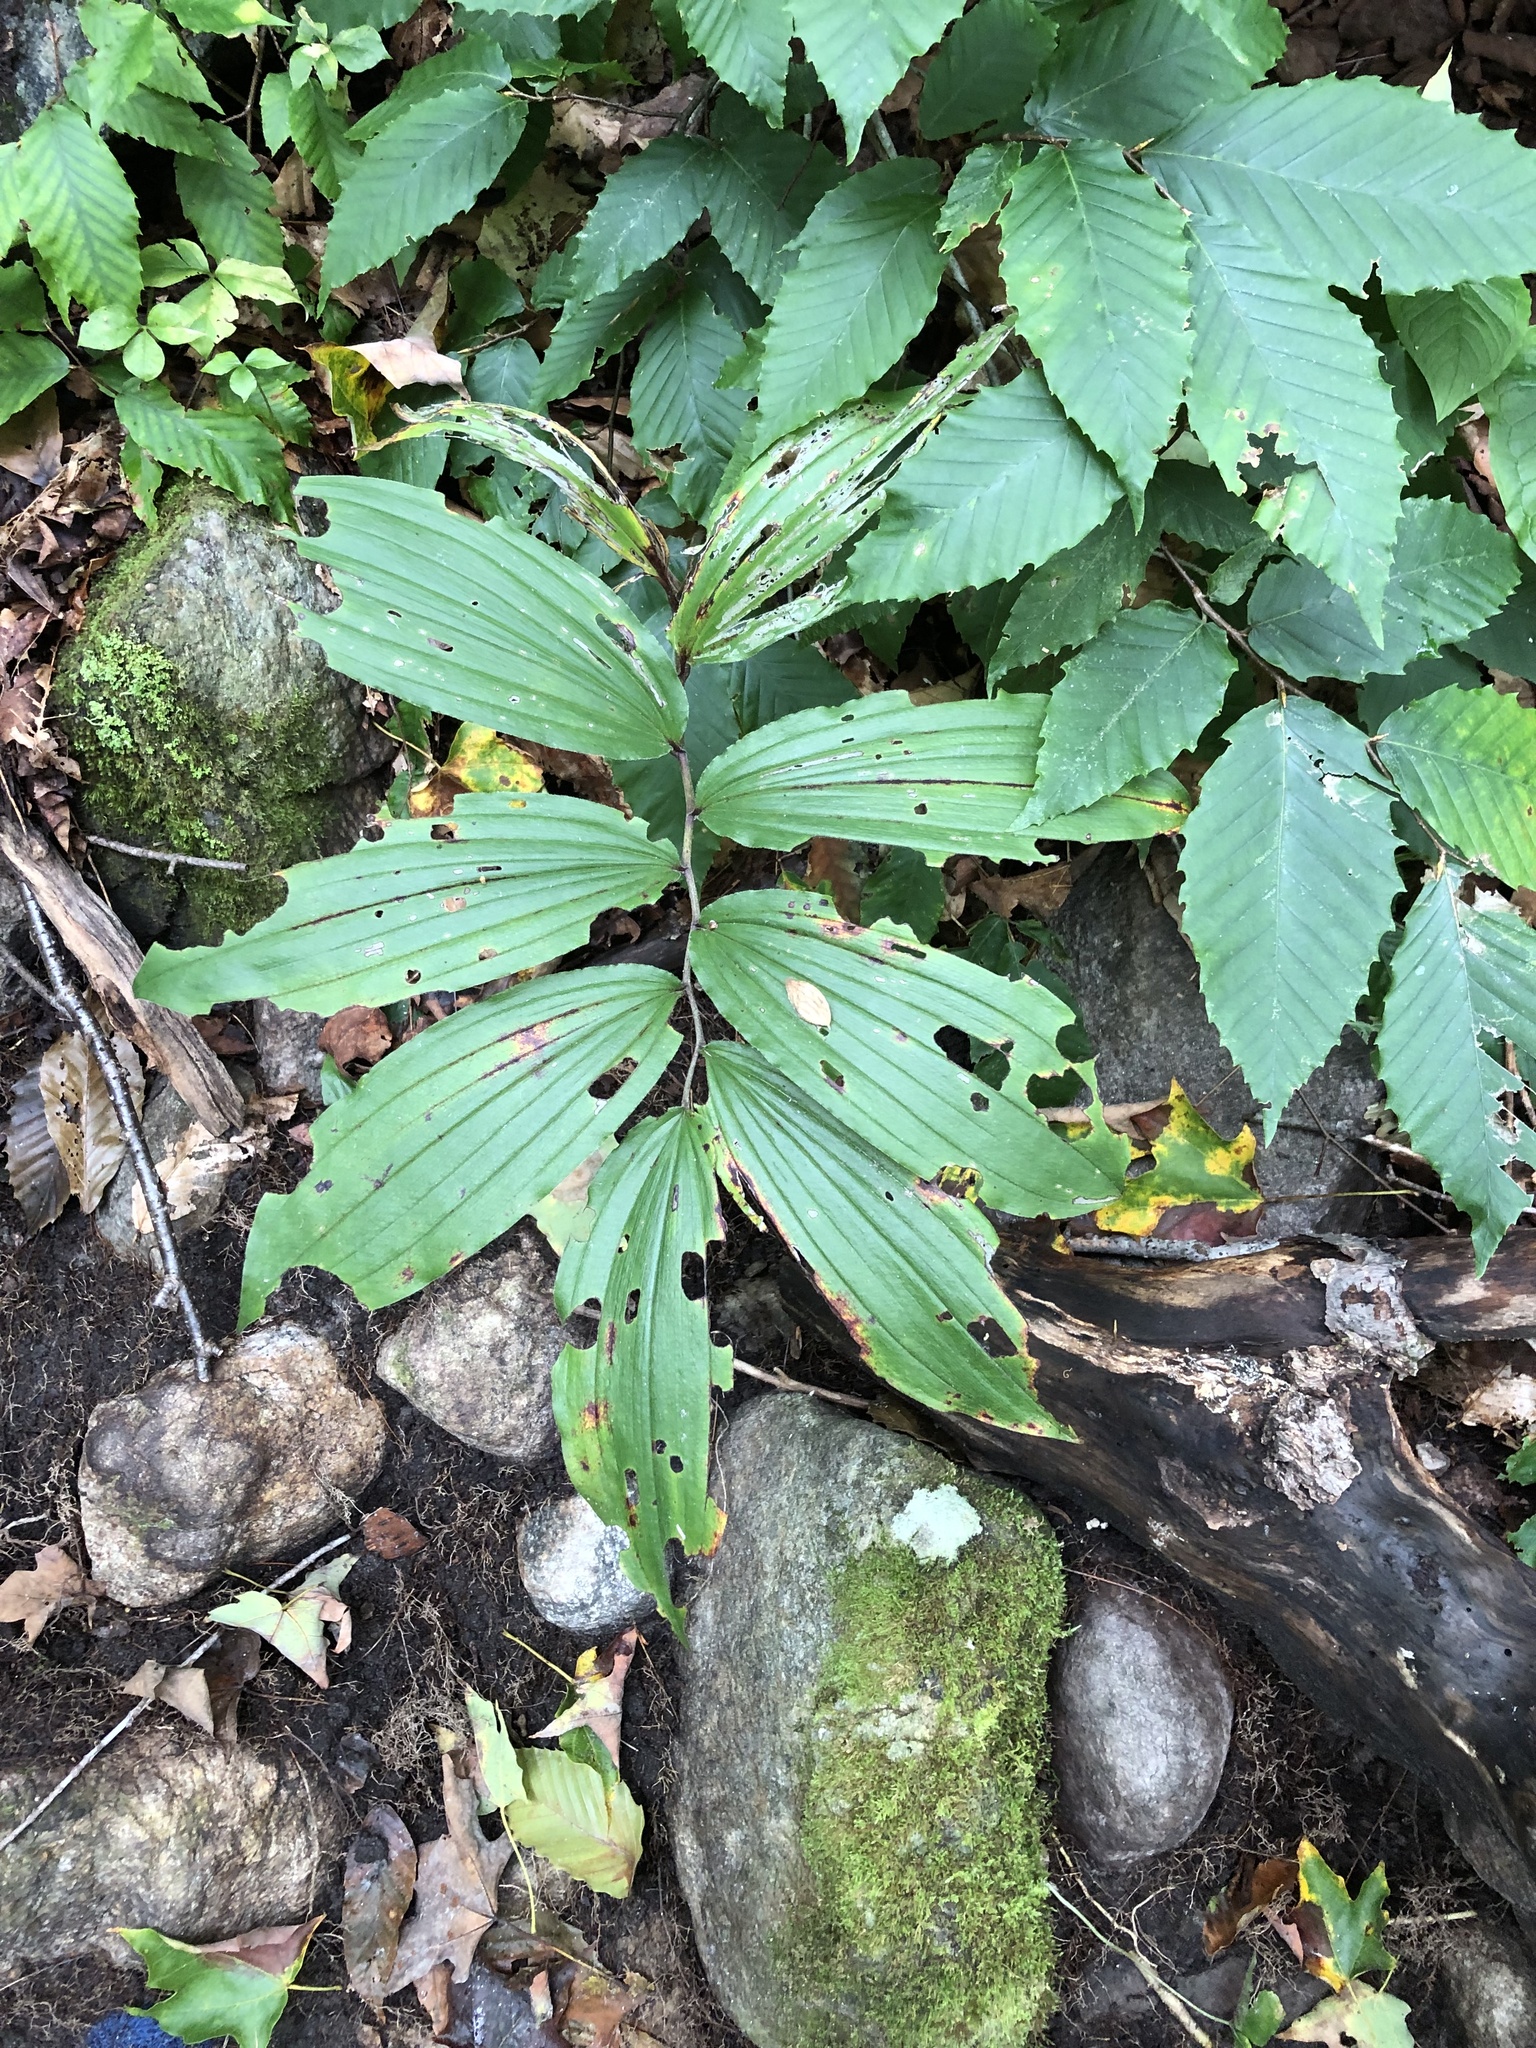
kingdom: Plantae
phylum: Tracheophyta
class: Liliopsida
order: Asparagales
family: Asparagaceae
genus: Maianthemum
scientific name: Maianthemum racemosum
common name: False spikenard
